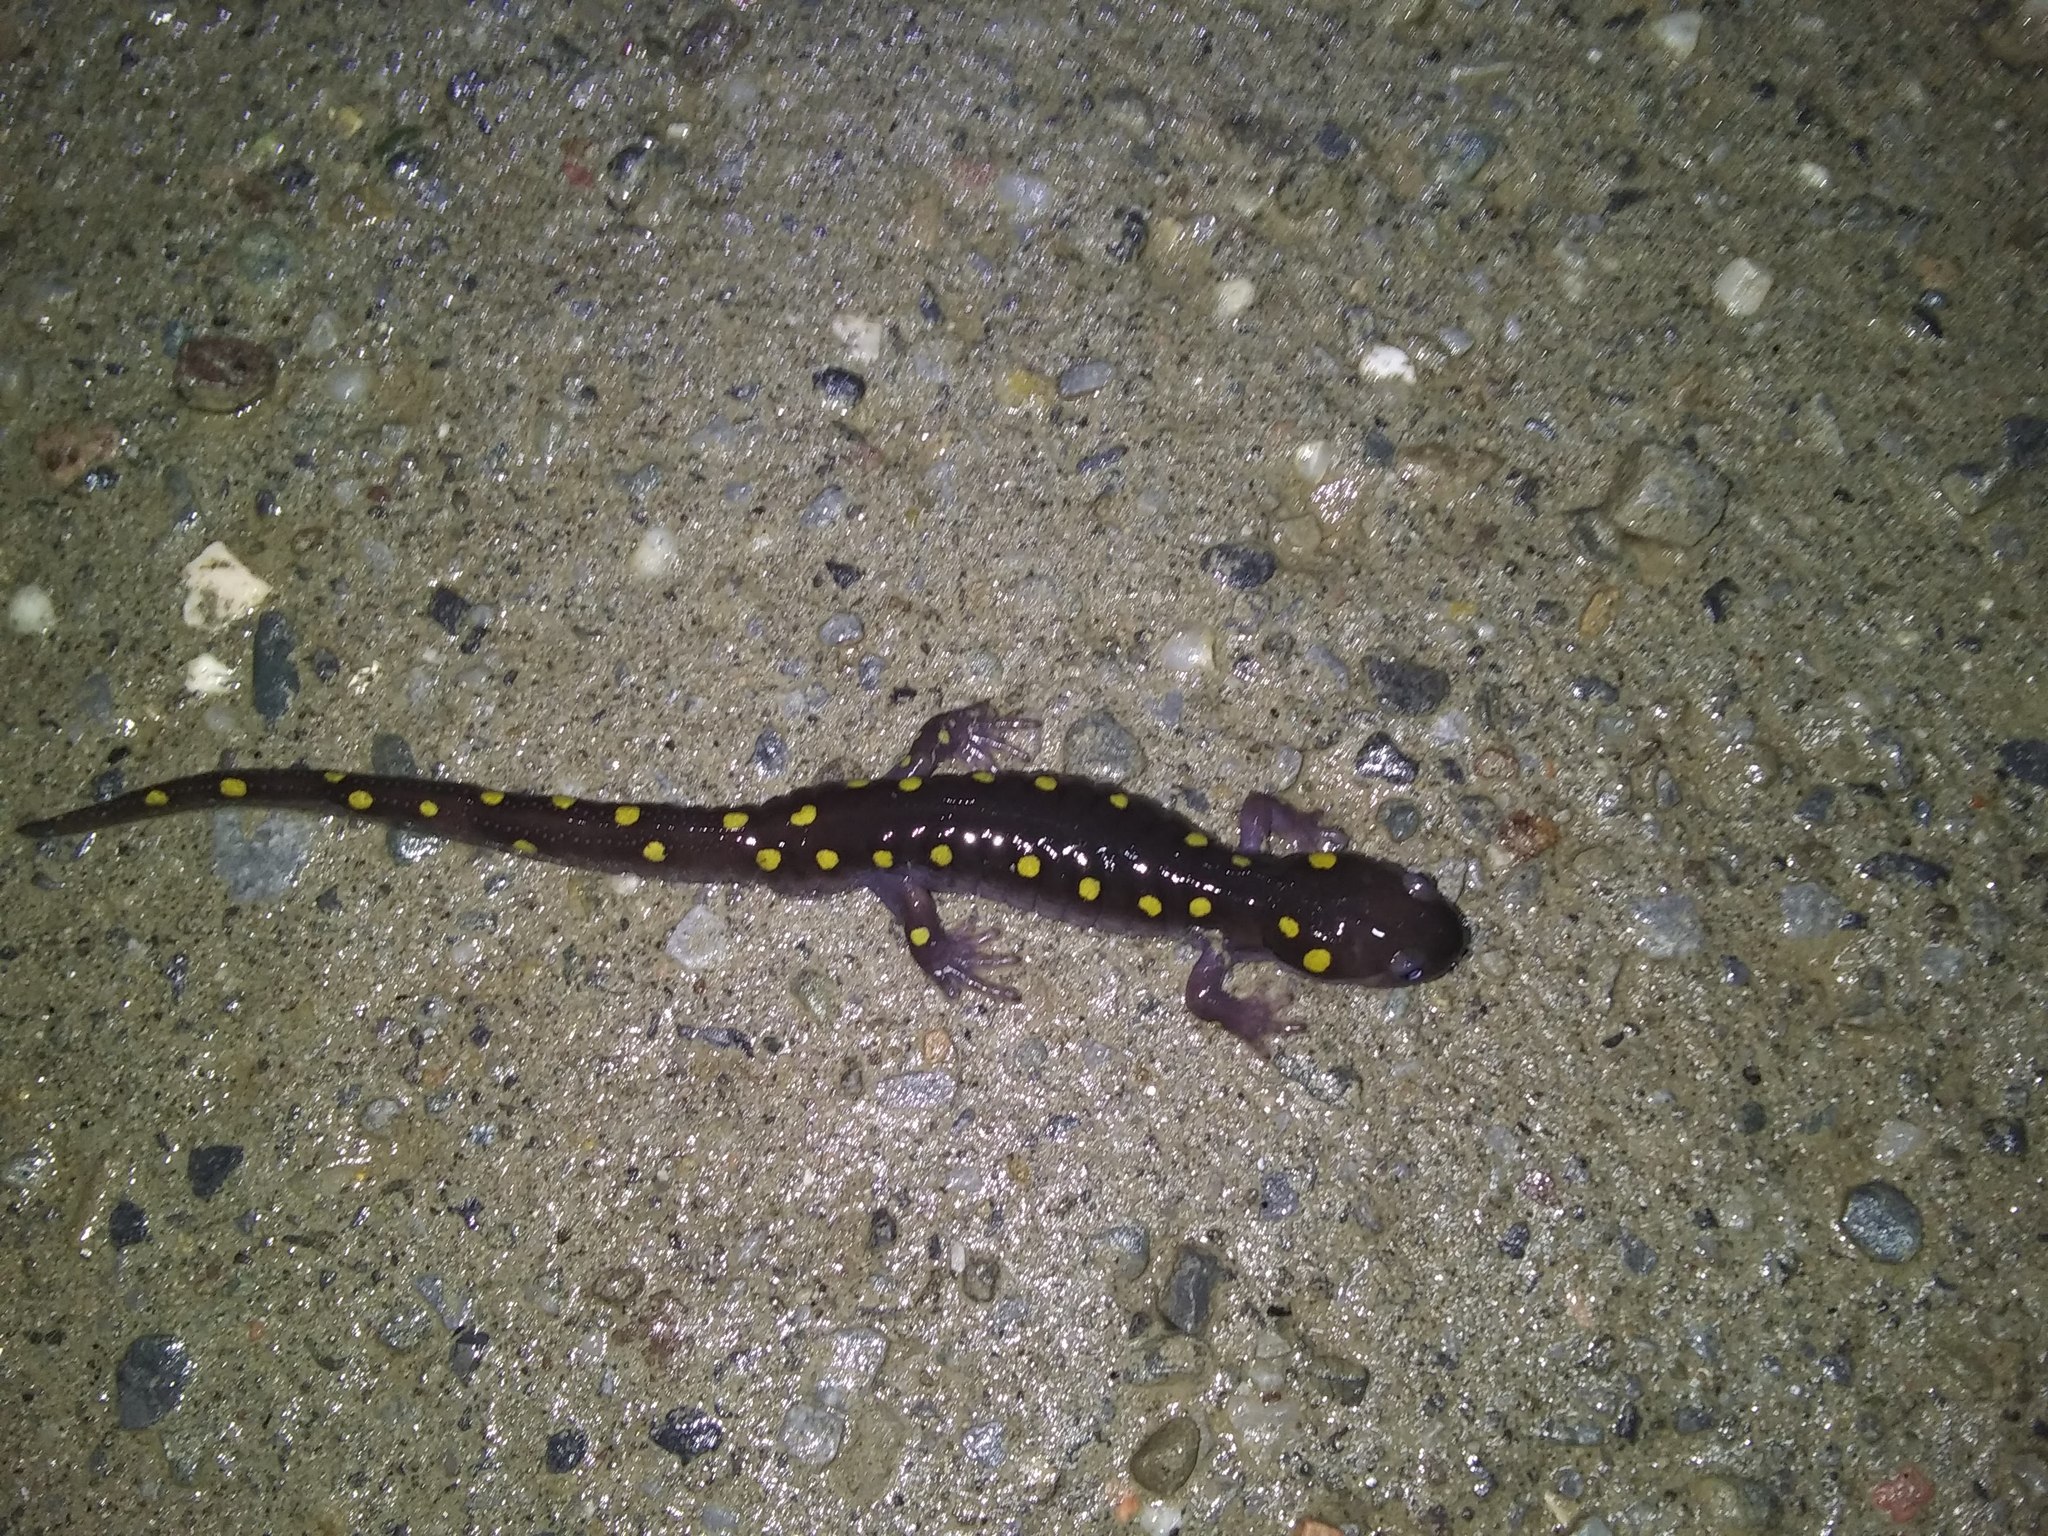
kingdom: Animalia
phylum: Chordata
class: Amphibia
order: Caudata
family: Ambystomatidae
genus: Ambystoma
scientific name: Ambystoma maculatum
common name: Spotted salamander
